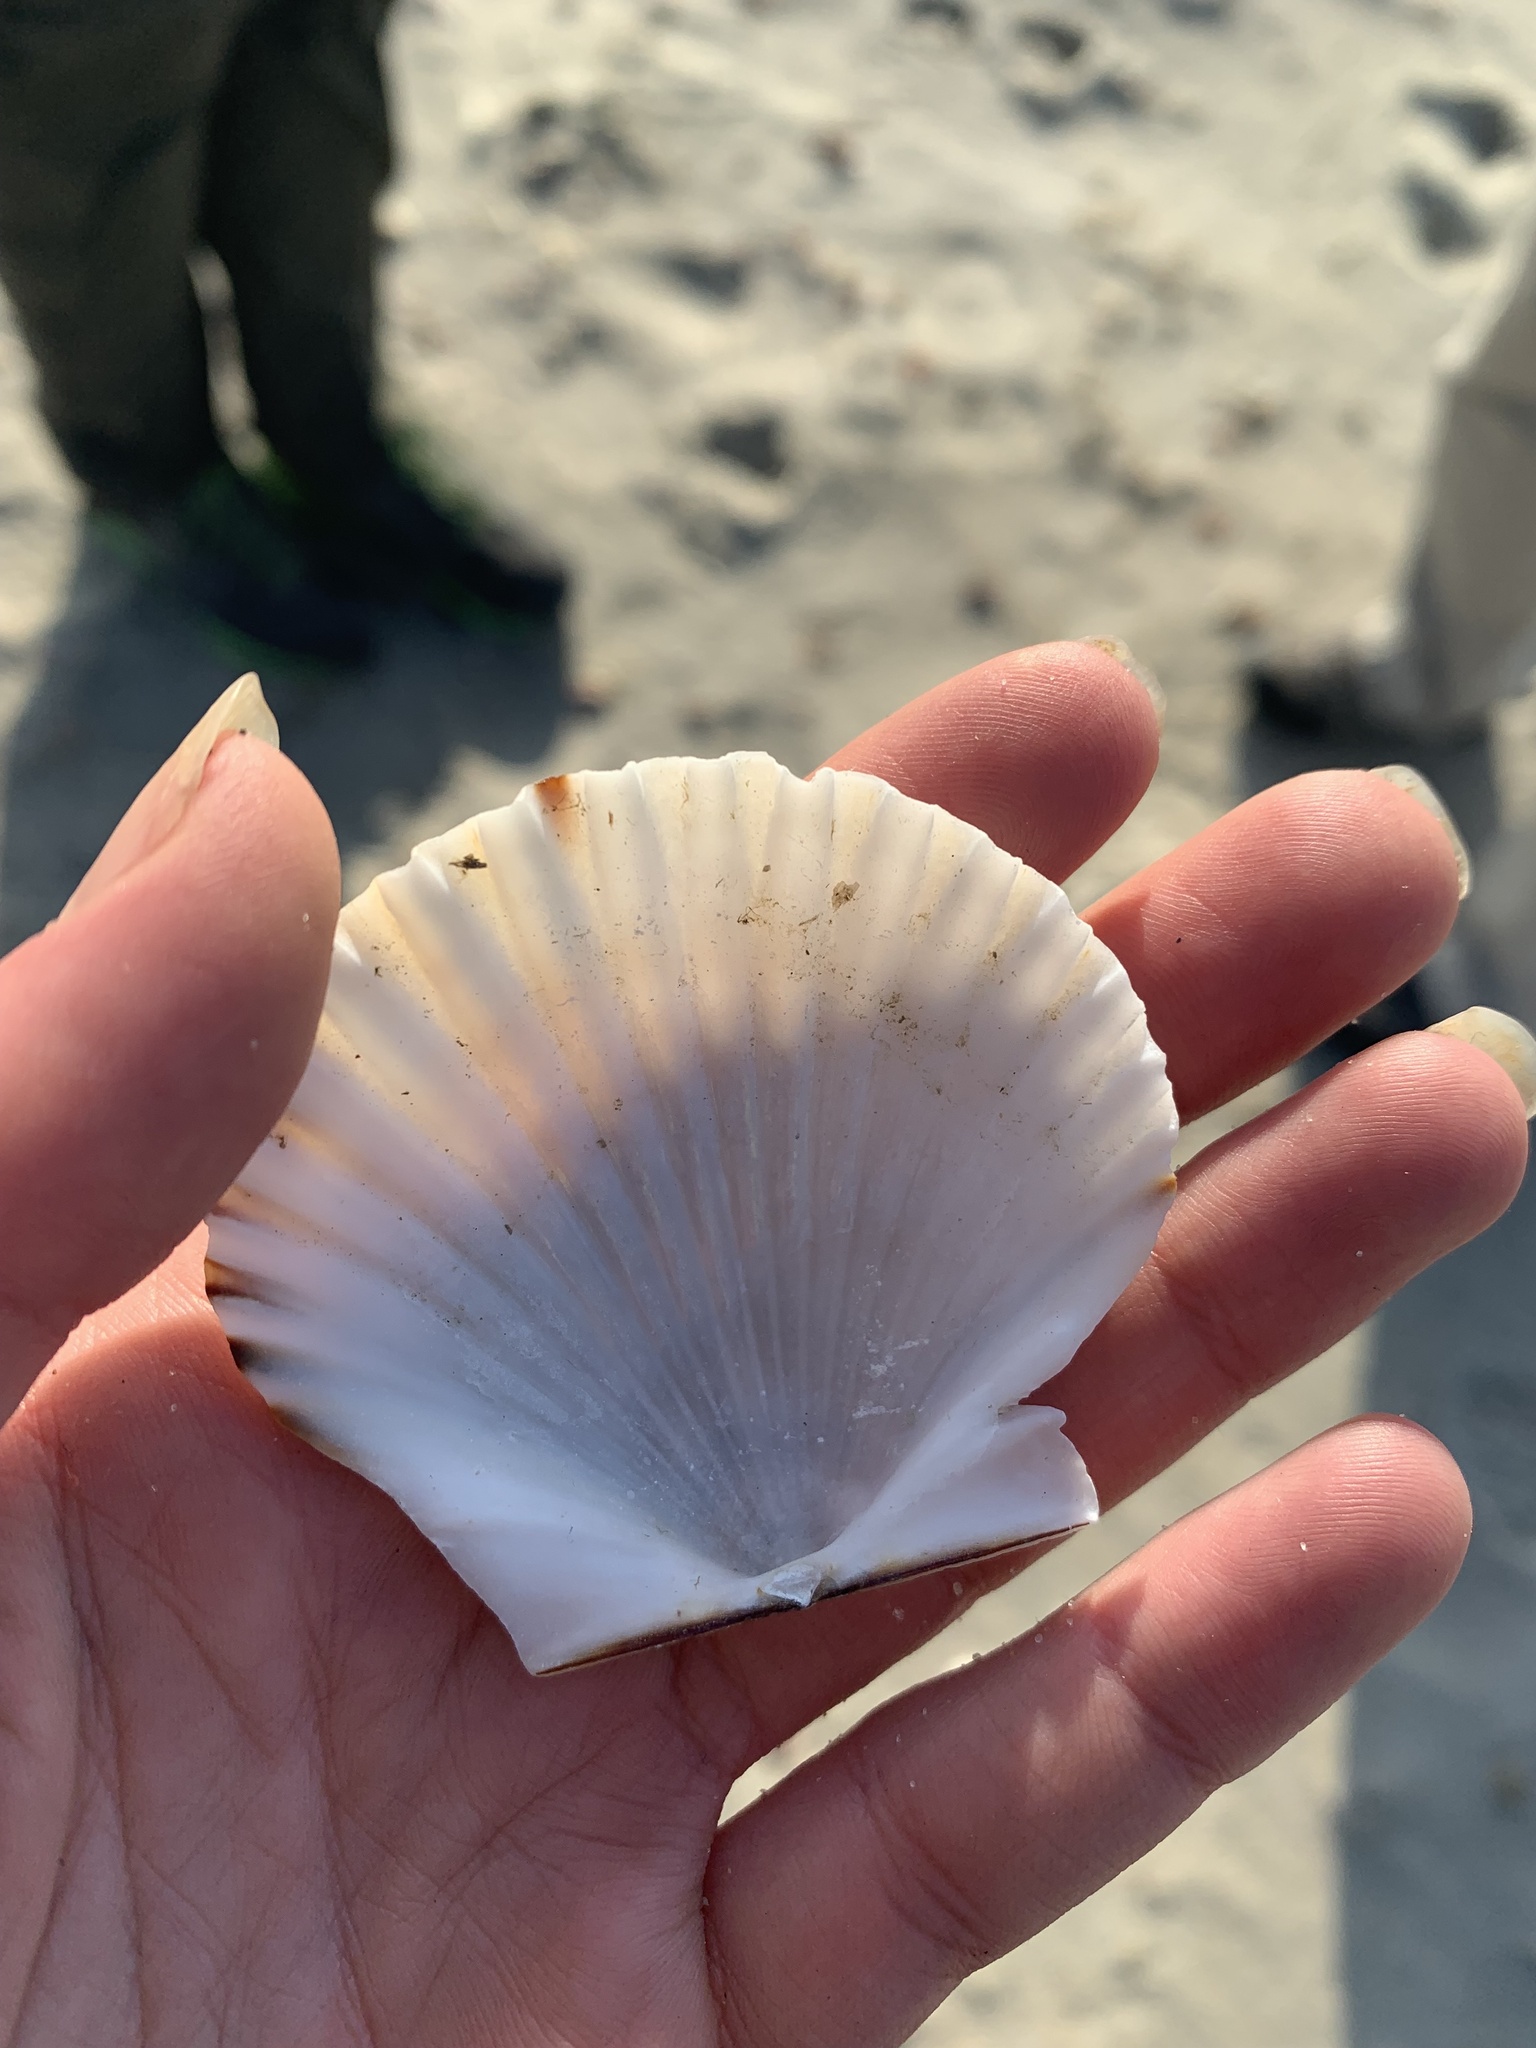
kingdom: Animalia
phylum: Mollusca
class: Bivalvia
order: Pectinida
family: Pectinidae
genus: Argopecten
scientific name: Argopecten irradians
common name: Atlantic bay scallop
